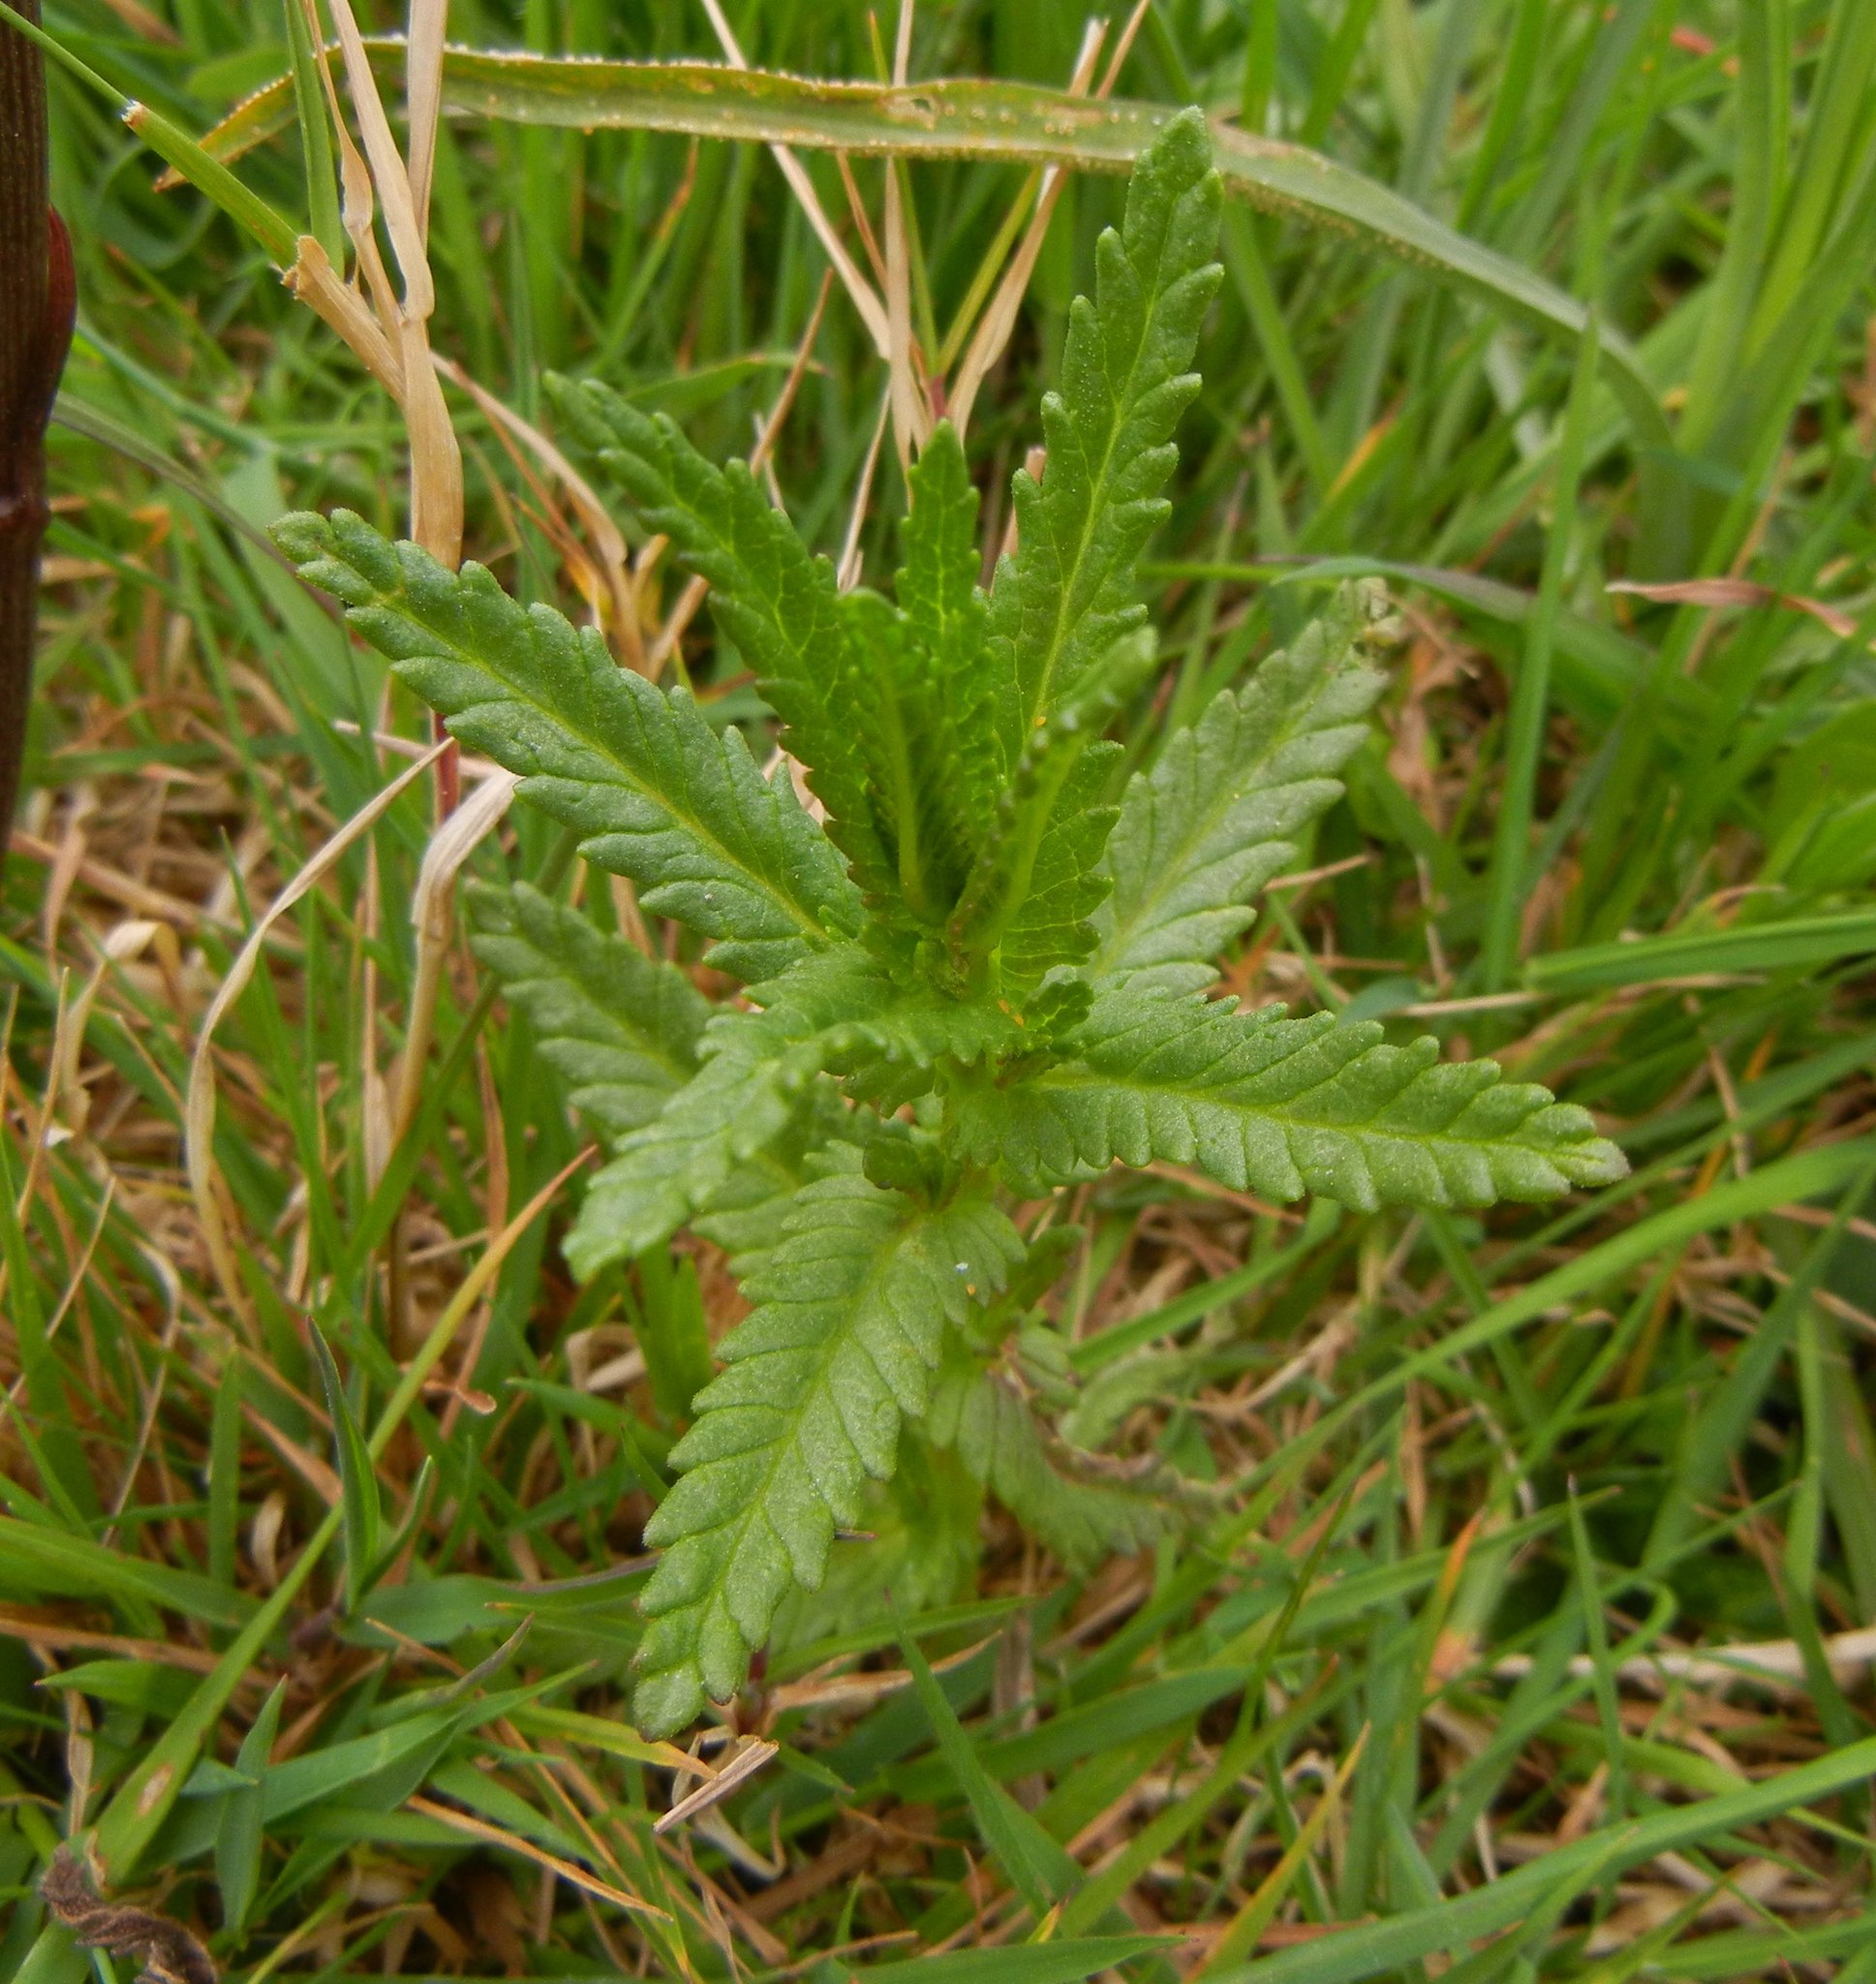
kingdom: Plantae
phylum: Tracheophyta
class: Magnoliopsida
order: Lamiales
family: Orobanchaceae
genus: Rhinanthus
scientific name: Rhinanthus minor
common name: Yellow-rattle
